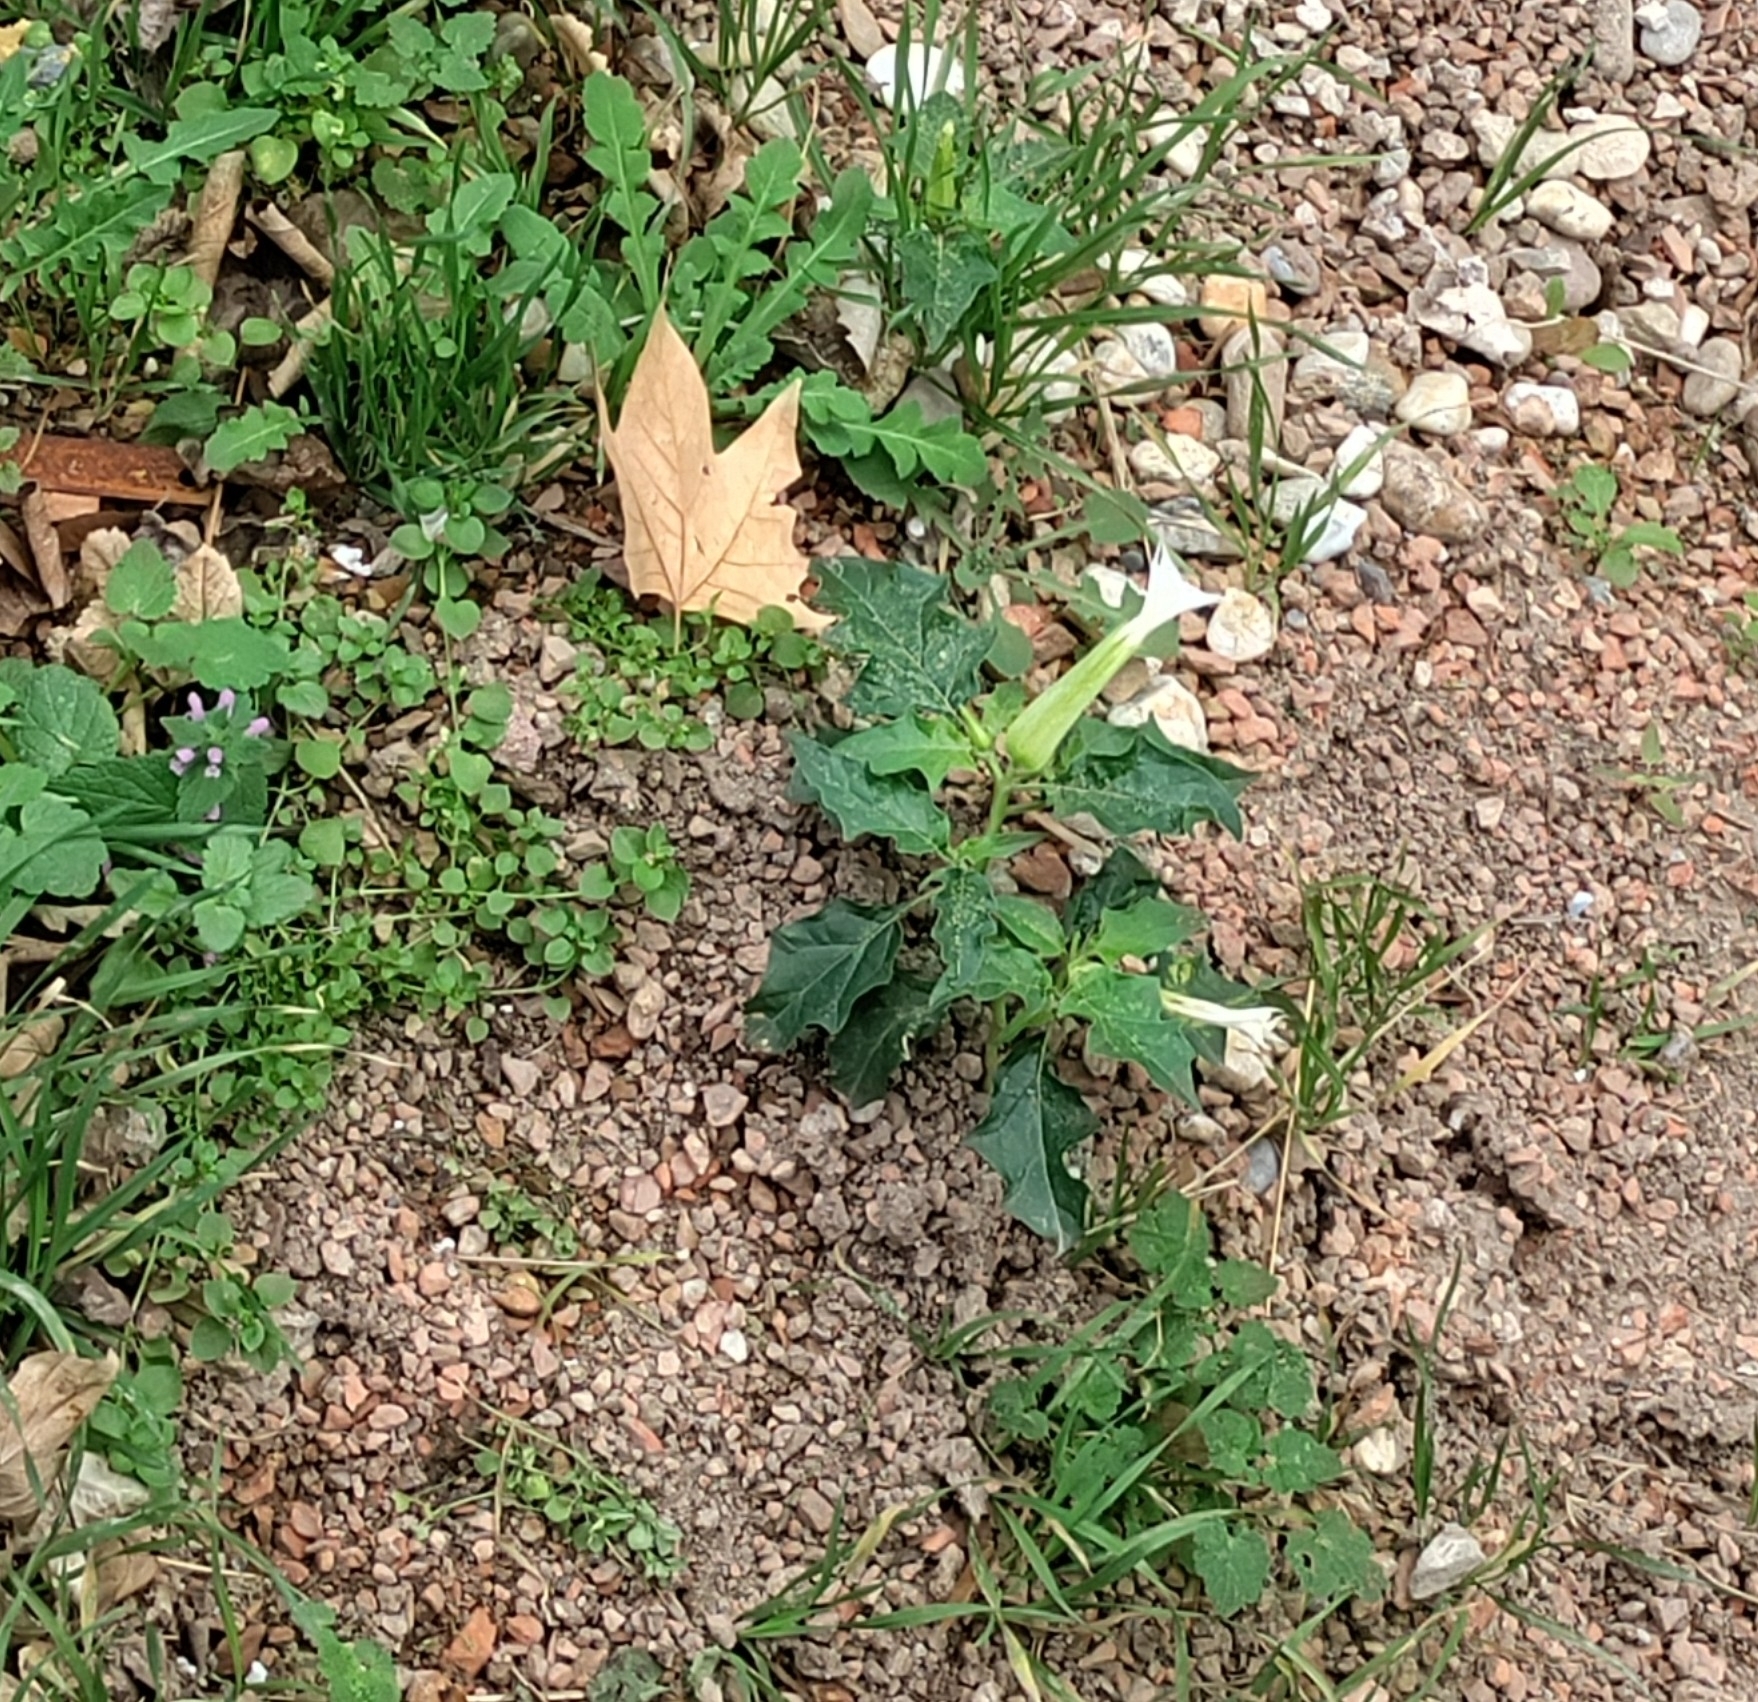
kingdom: Plantae
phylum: Tracheophyta
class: Magnoliopsida
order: Solanales
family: Solanaceae
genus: Datura
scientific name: Datura stramonium
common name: Thorn-apple
